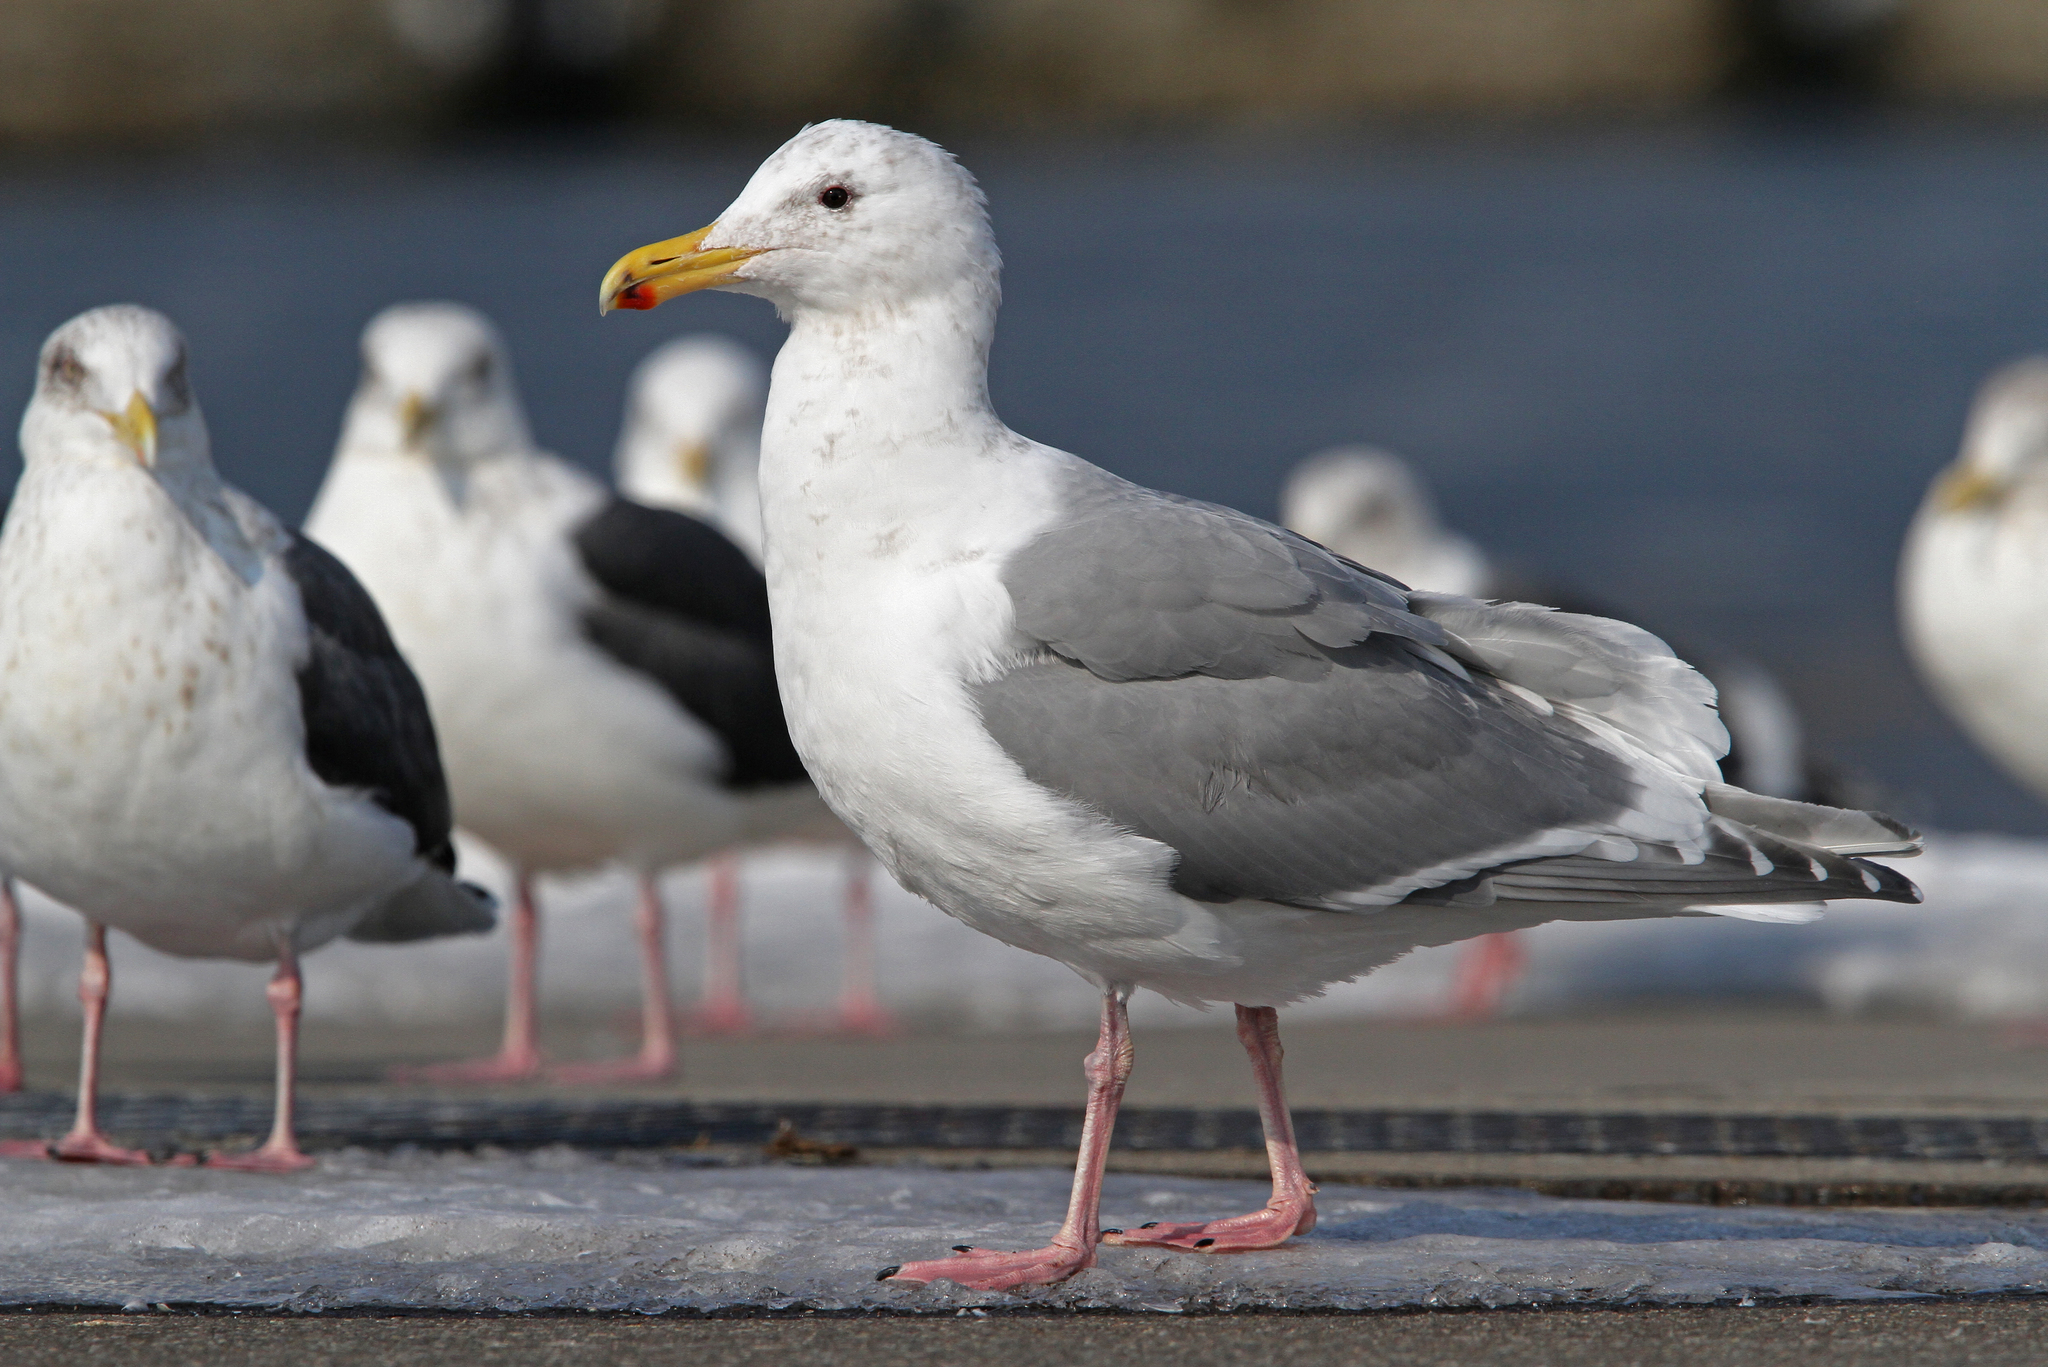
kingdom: Animalia
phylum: Chordata
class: Aves
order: Charadriiformes
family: Laridae
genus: Larus
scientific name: Larus glaucescens
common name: Glaucous-winged gull
